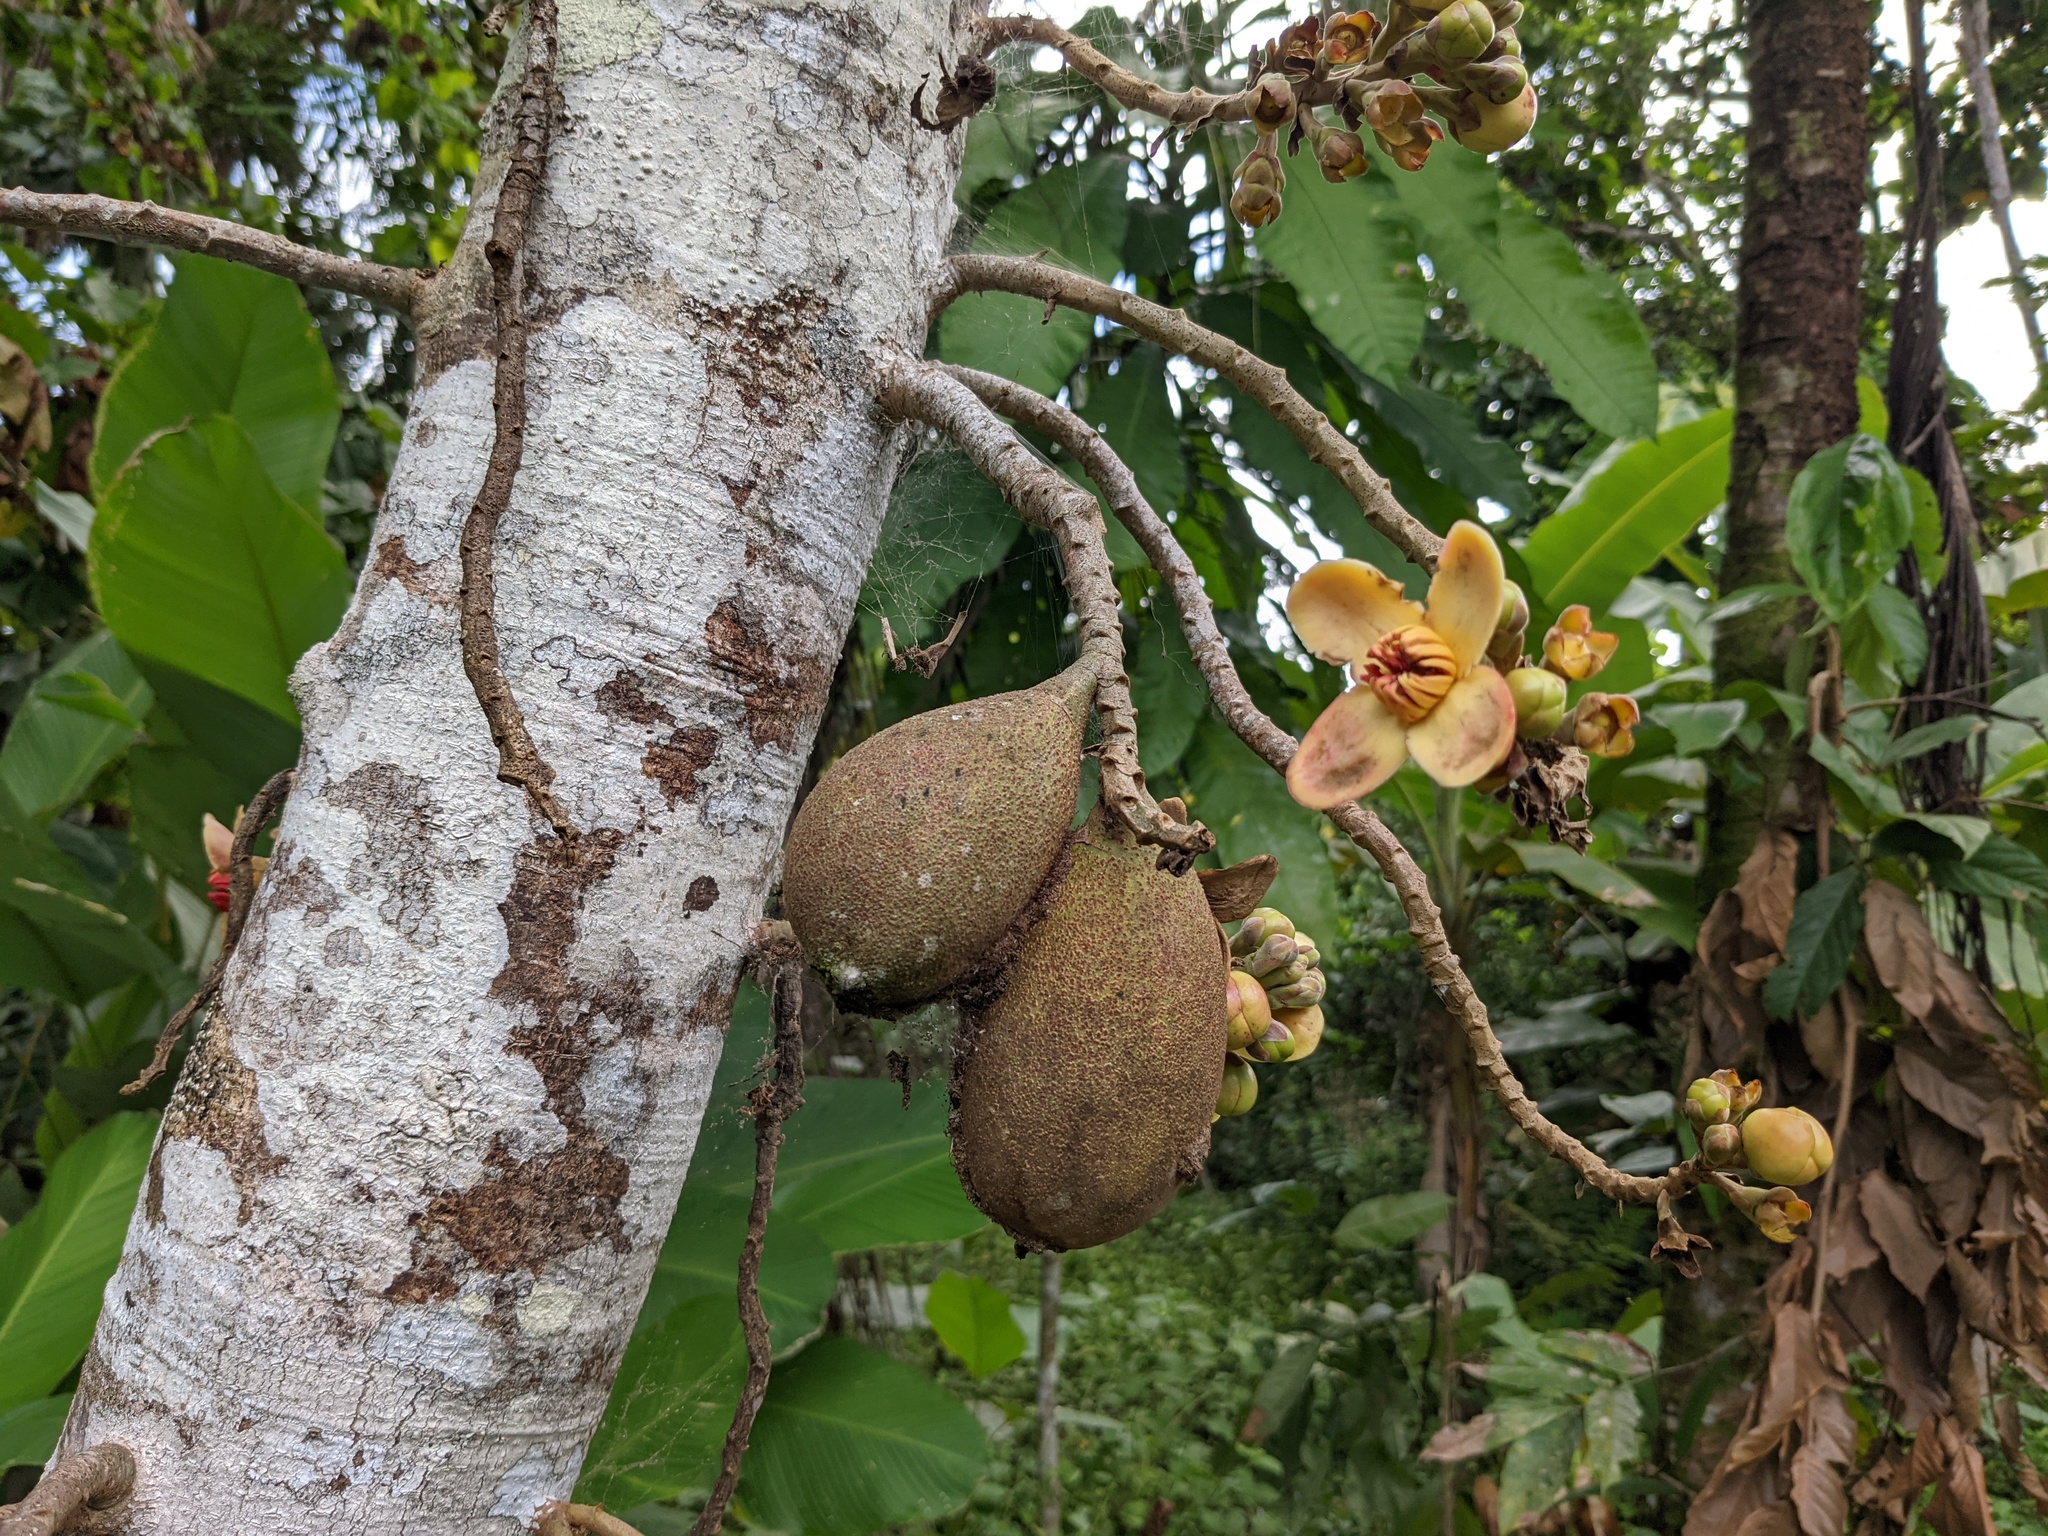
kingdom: Plantae
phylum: Tracheophyta
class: Magnoliopsida
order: Ericales
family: Lecythidaceae
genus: Grias
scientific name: Grias neuberthii
